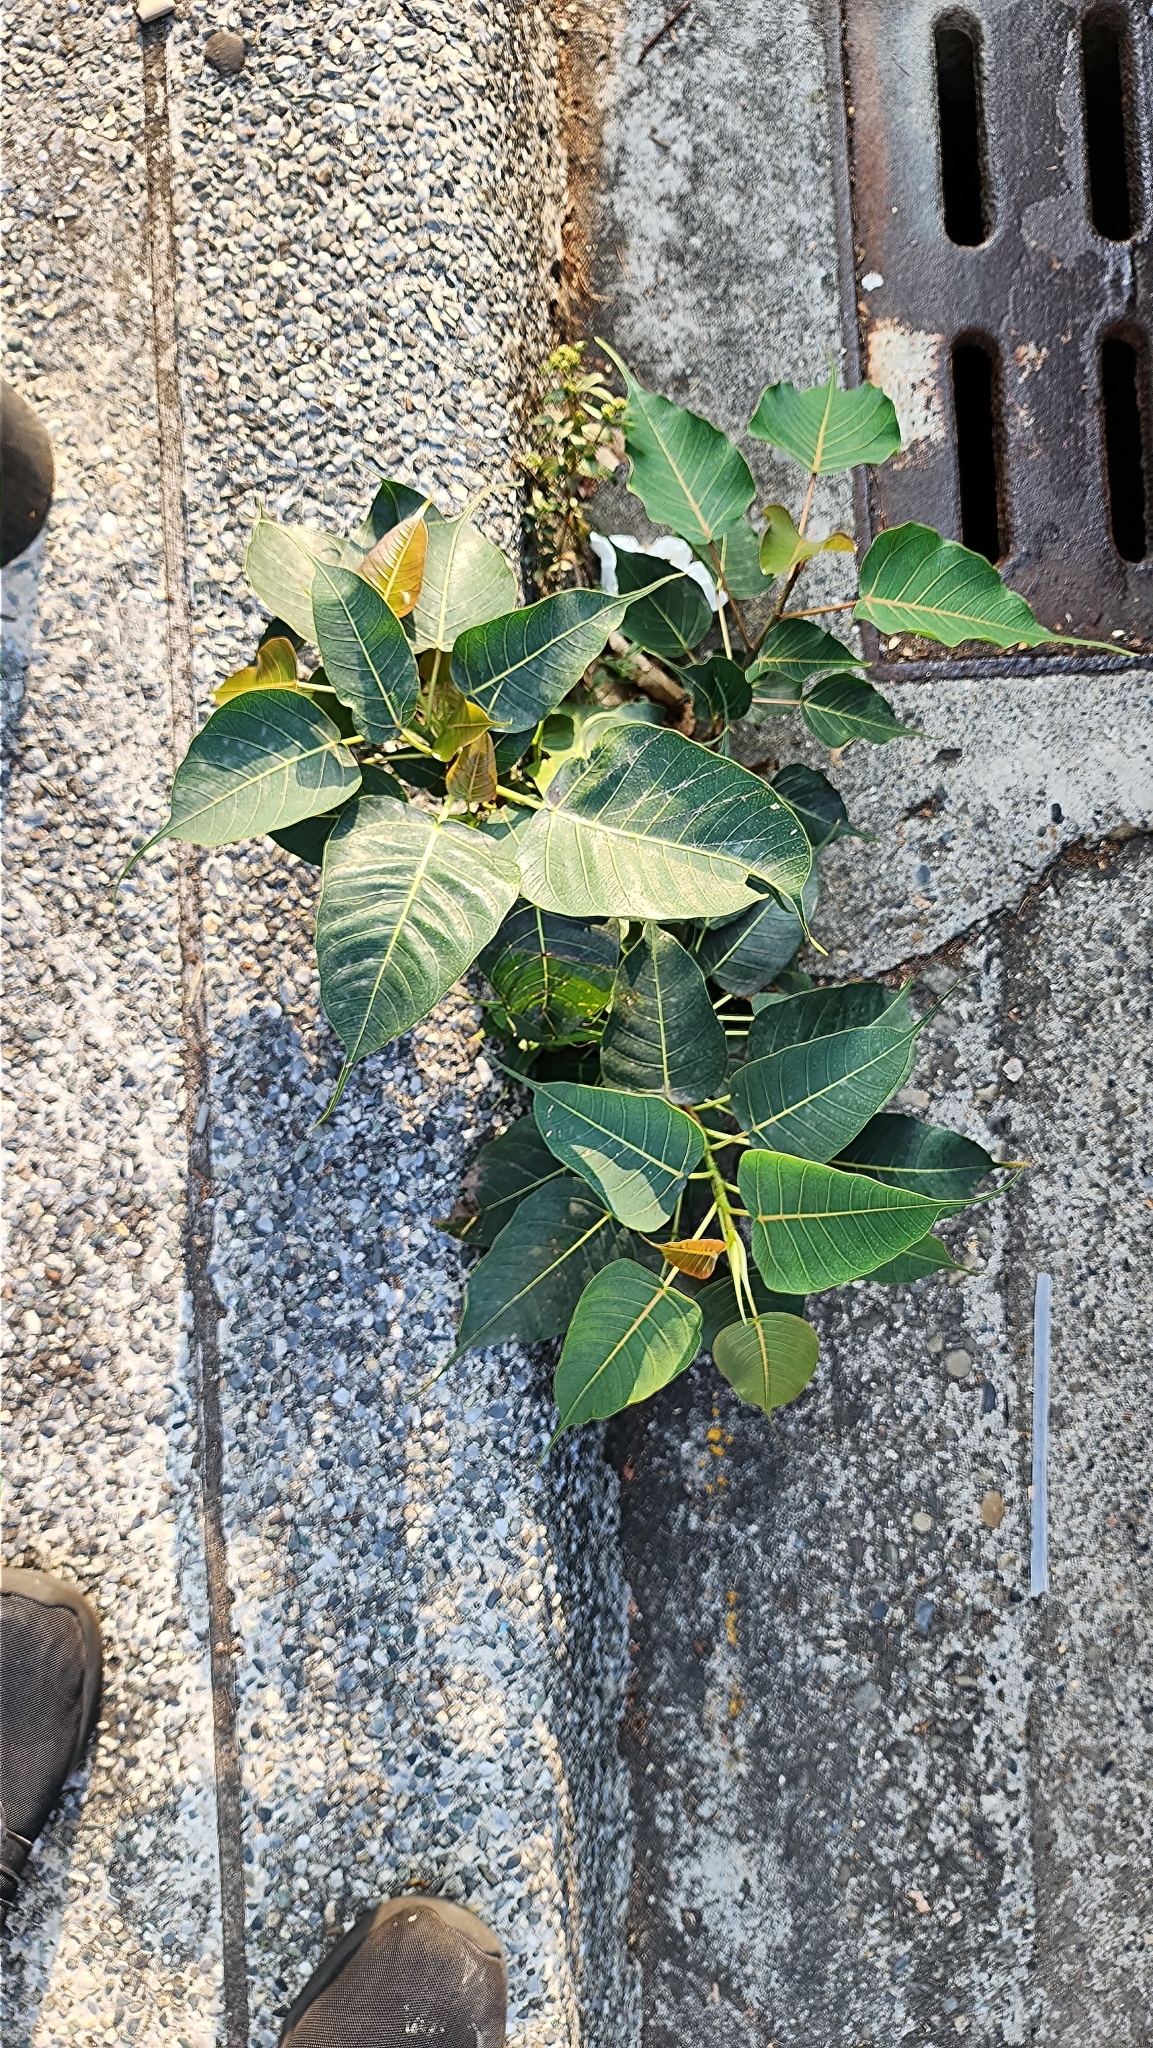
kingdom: Plantae
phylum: Tracheophyta
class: Magnoliopsida
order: Rosales
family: Moraceae
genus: Ficus
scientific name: Ficus religiosa
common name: Bodhi tree
